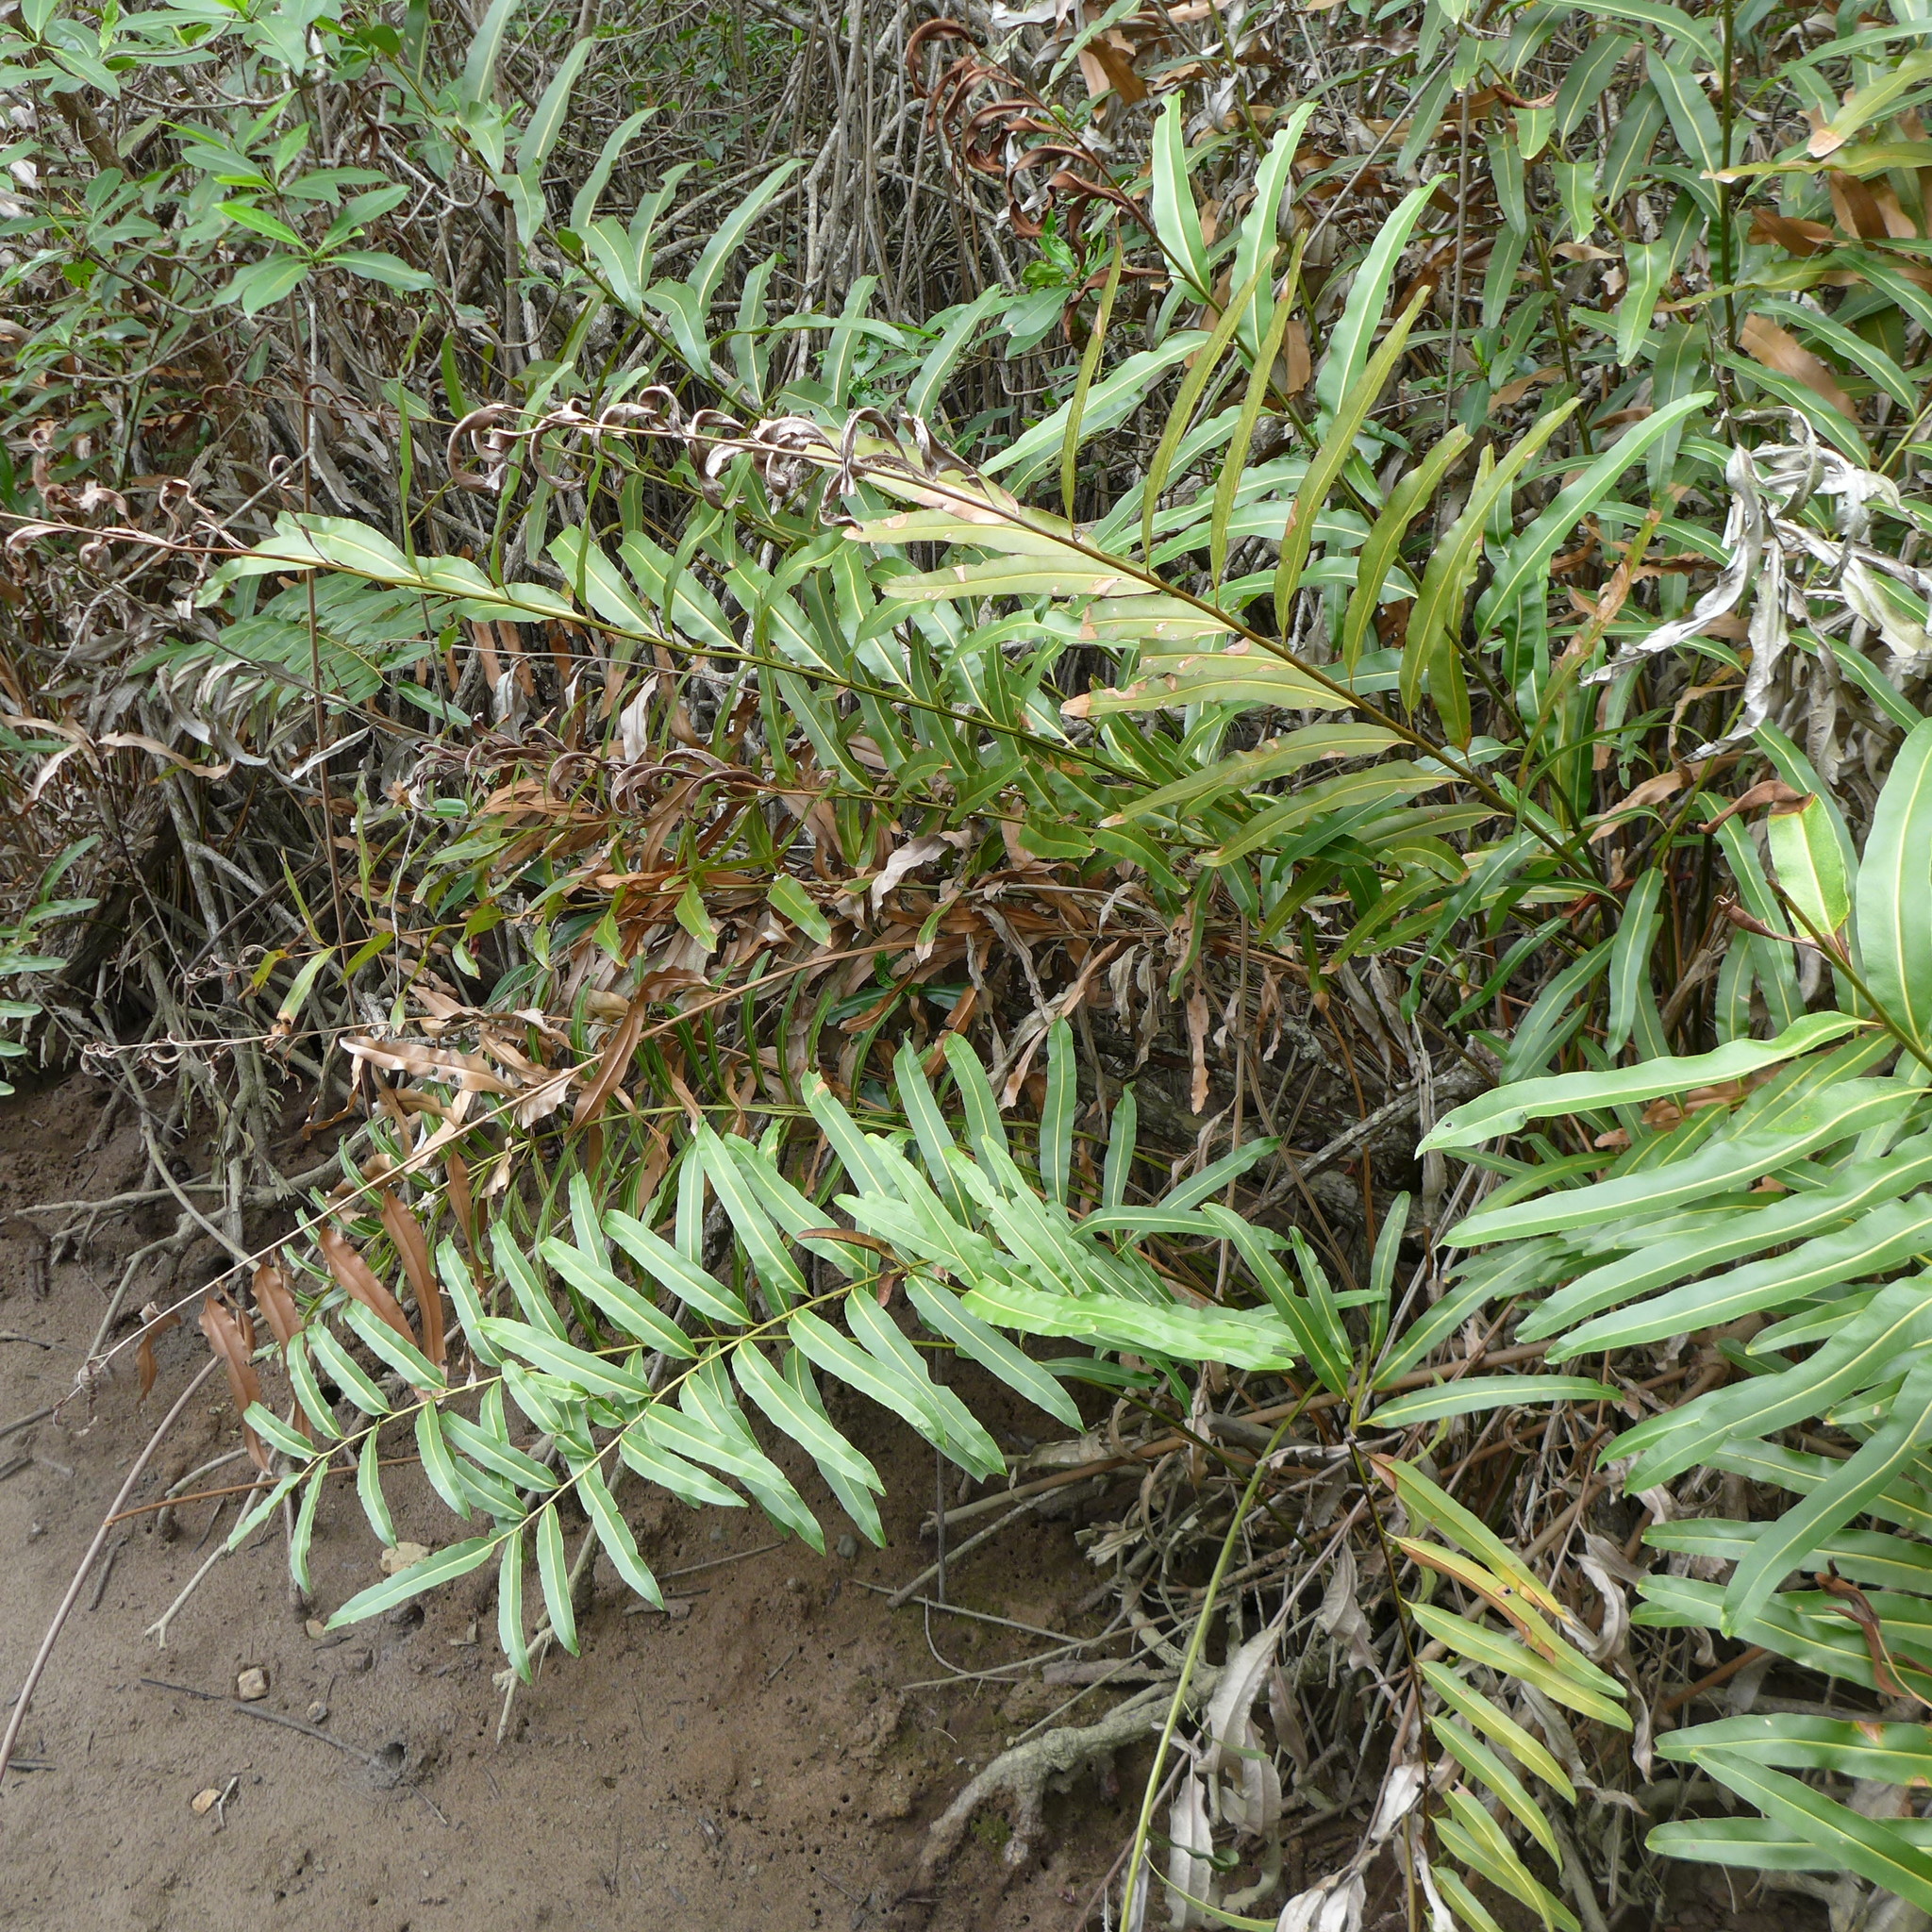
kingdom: Plantae
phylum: Tracheophyta
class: Polypodiopsida
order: Polypodiales
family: Pteridaceae
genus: Acrostichum
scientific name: Acrostichum danaeifolium
